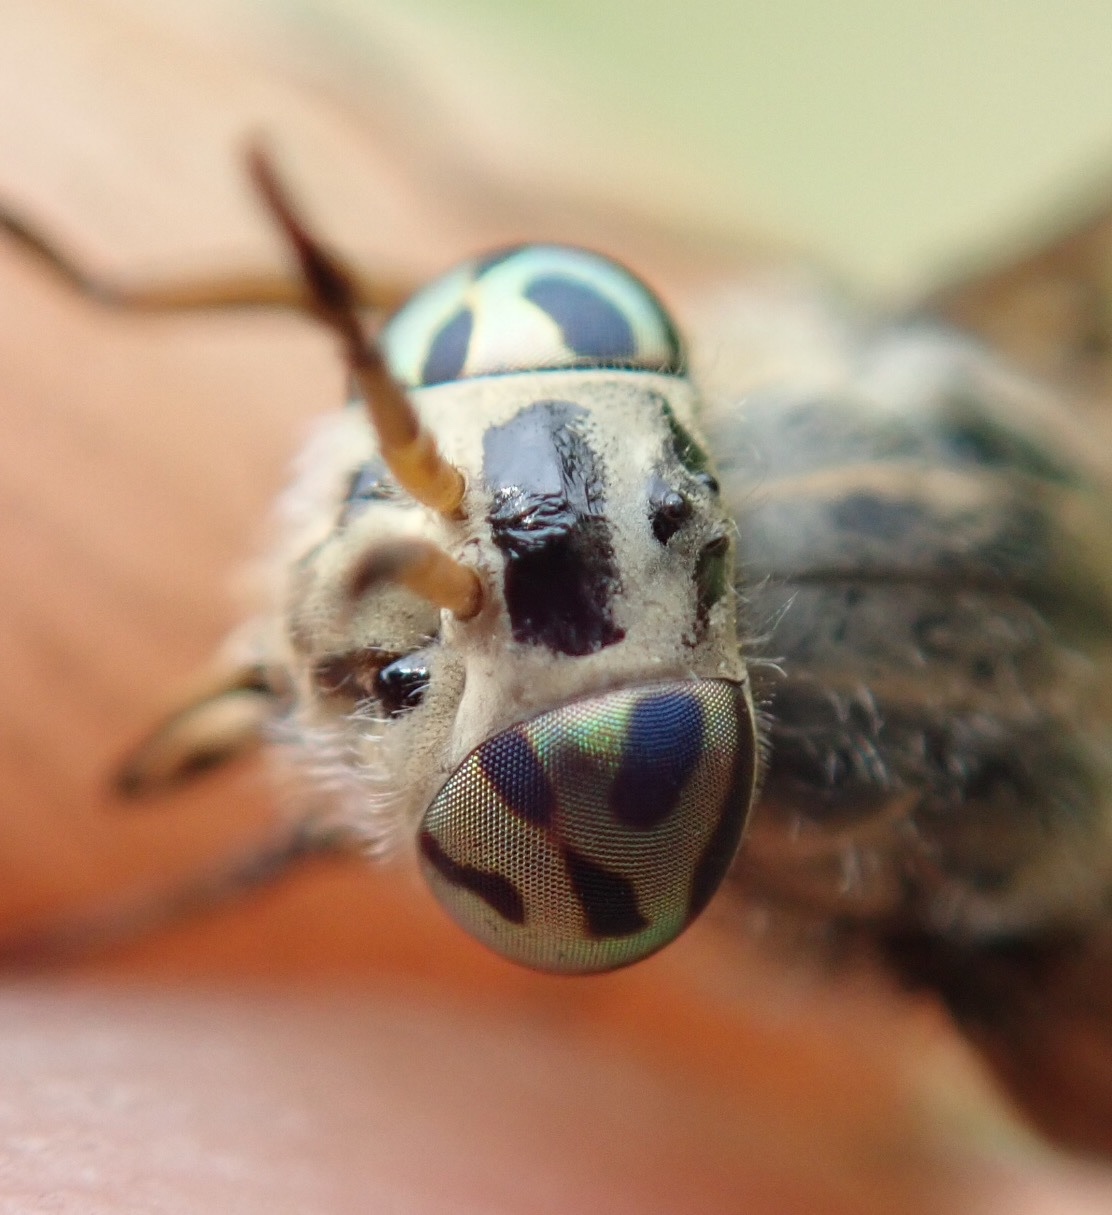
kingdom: Animalia
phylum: Arthropoda
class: Insecta
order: Diptera
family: Tabanidae
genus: Chrysops
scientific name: Chrysops laticeps
